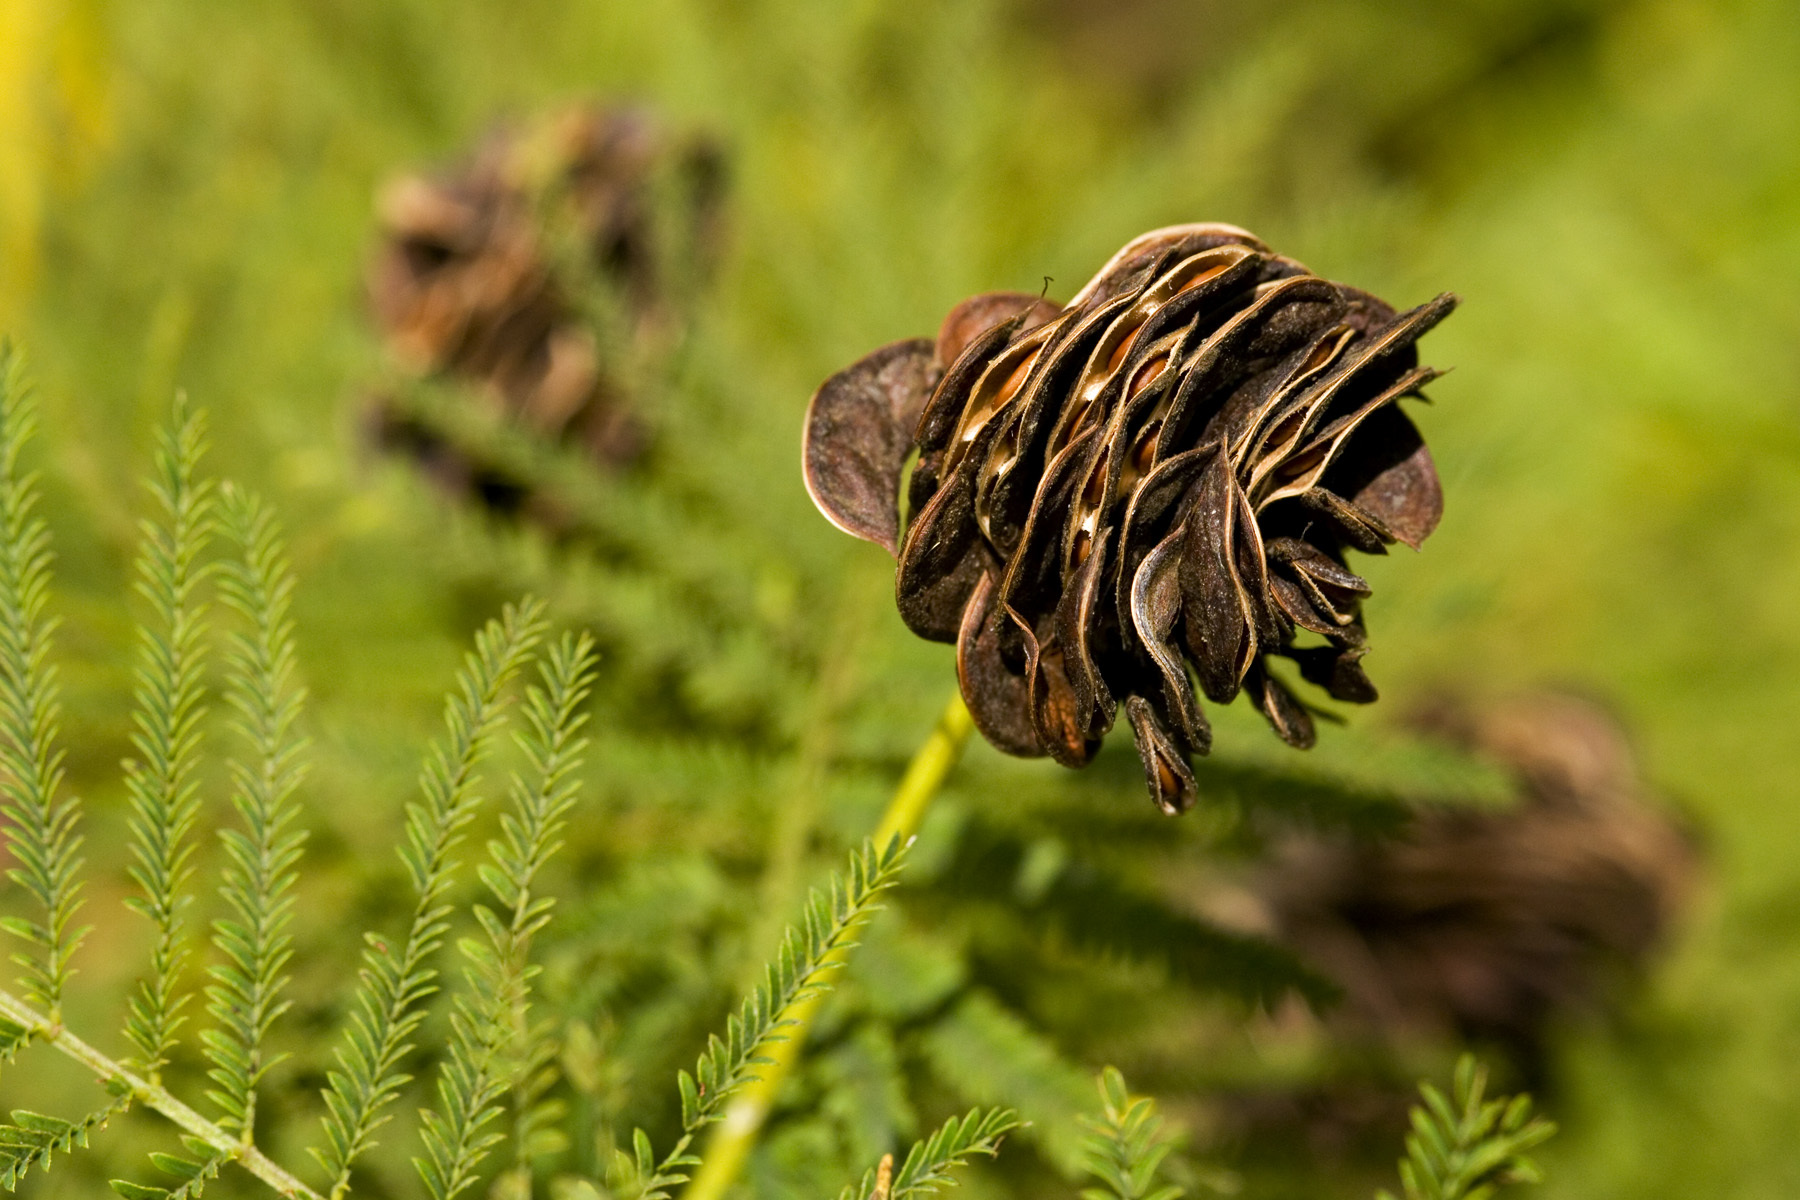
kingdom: Plantae
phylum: Tracheophyta
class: Magnoliopsida
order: Fabales
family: Fabaceae
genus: Desmanthus
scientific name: Desmanthus illinoensis
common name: Illinois bundle-flower
